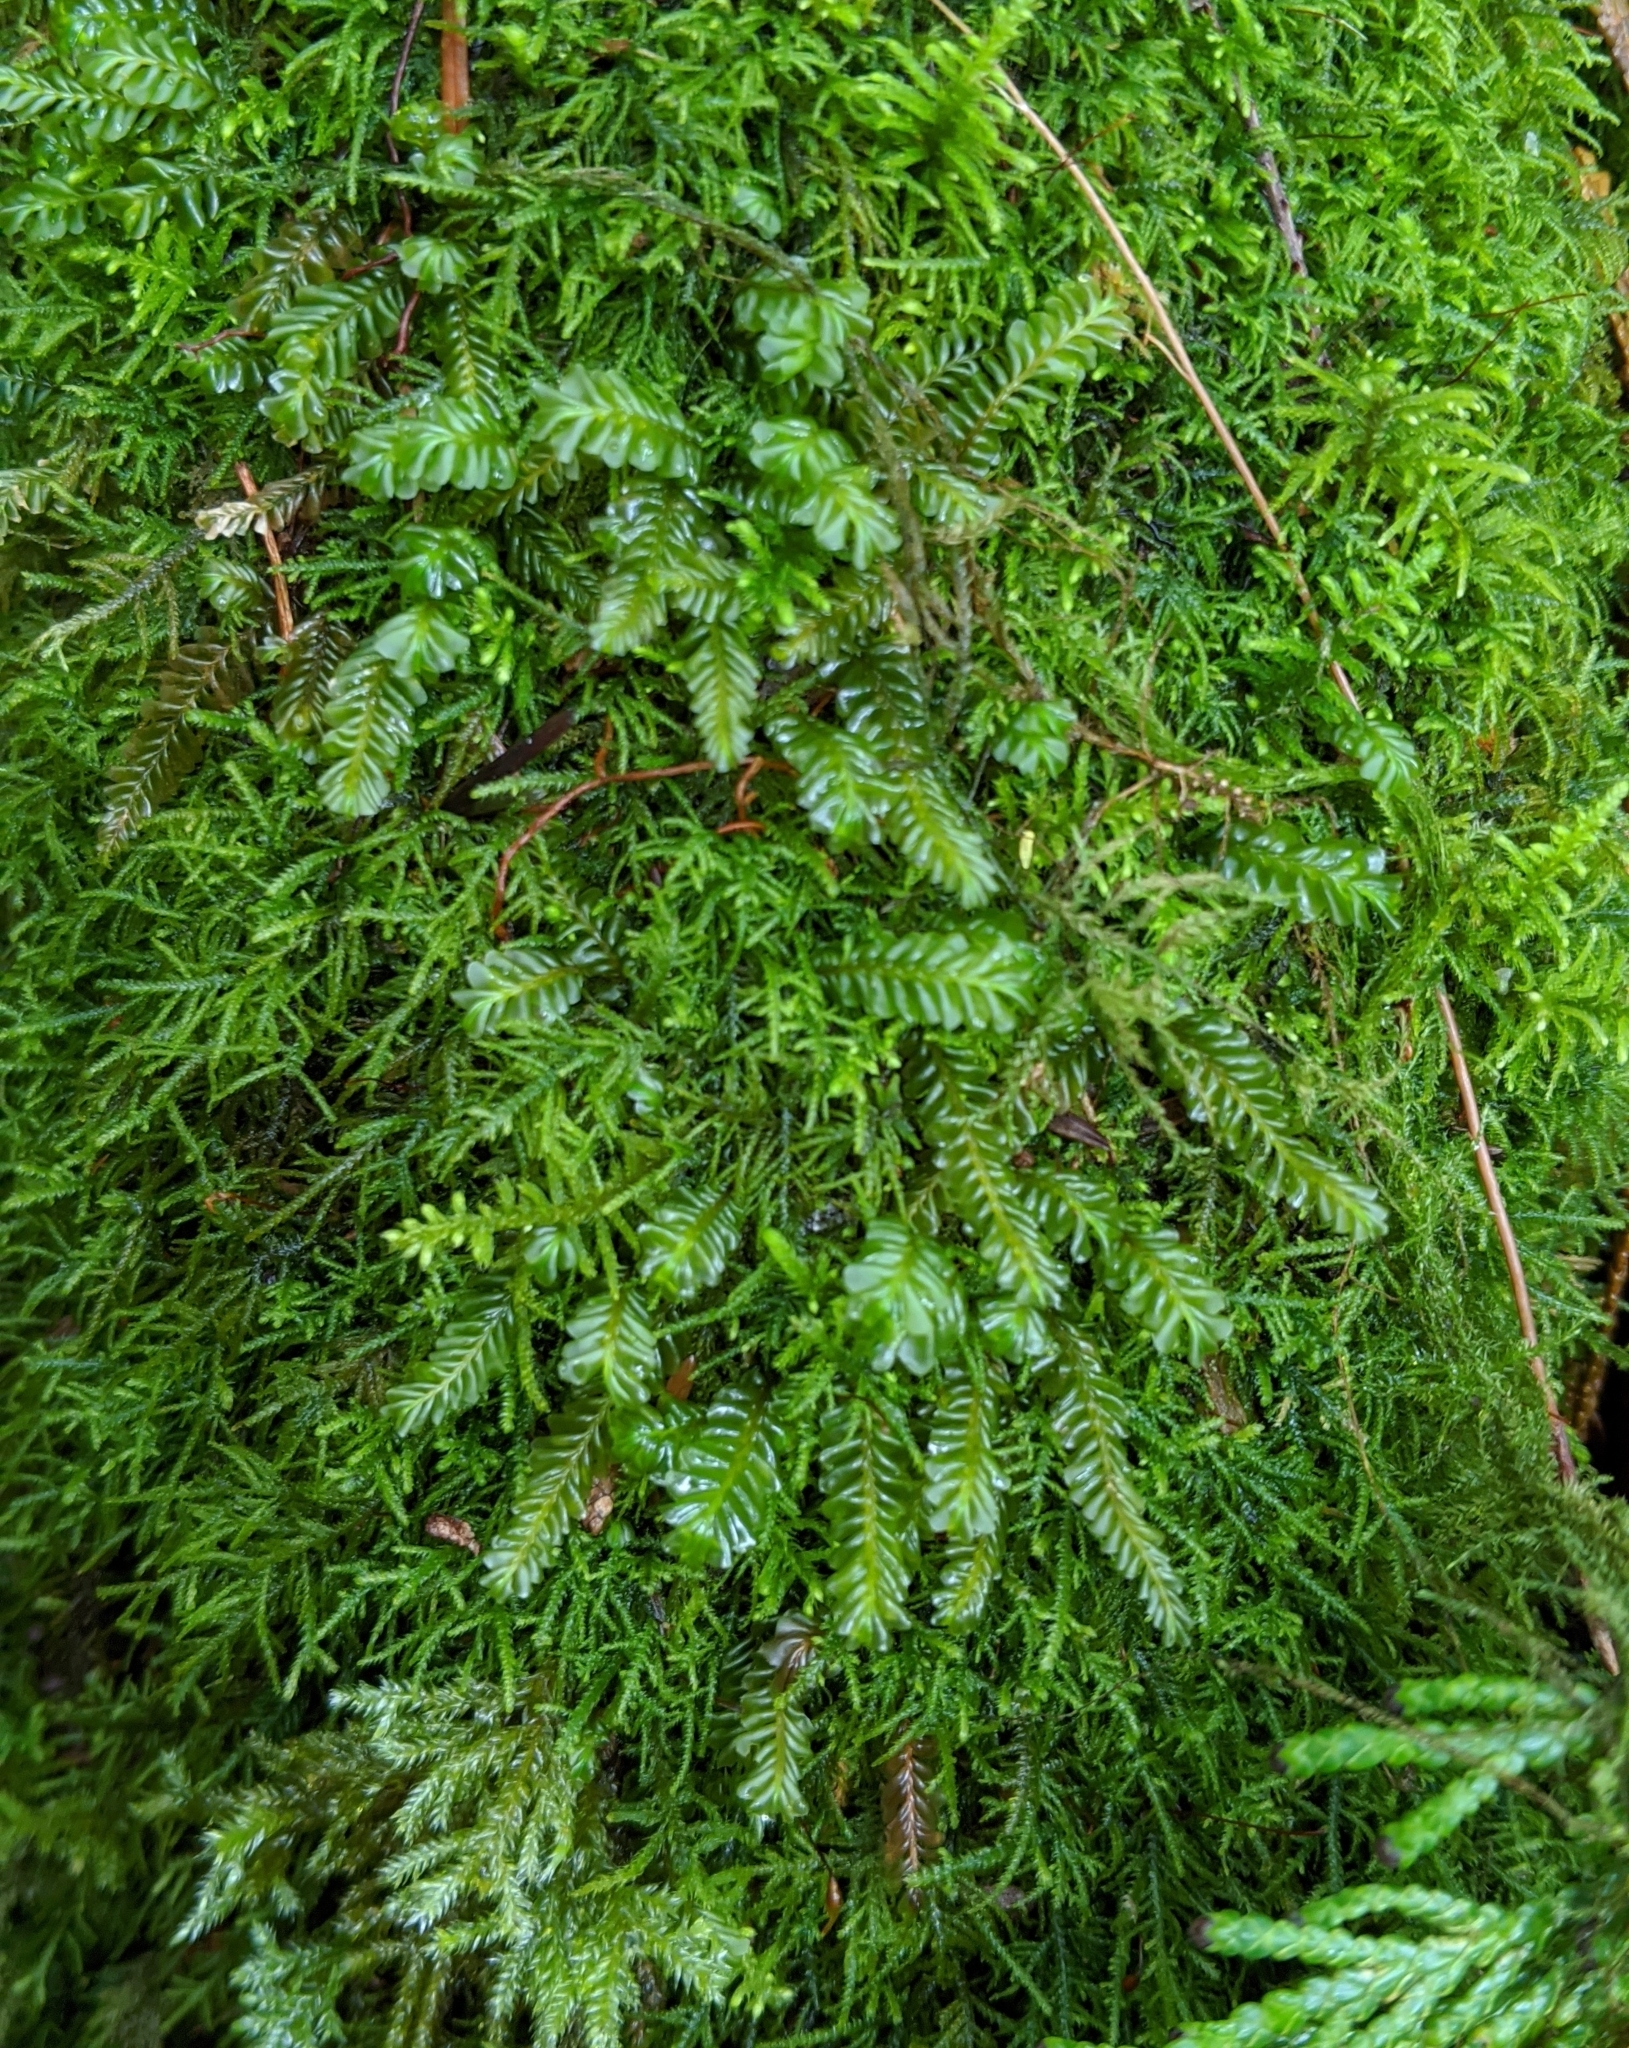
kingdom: Plantae
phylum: Marchantiophyta
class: Jungermanniopsida
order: Jungermanniales
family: Plagiochilaceae
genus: Plagiochila
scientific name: Plagiochila porelloides
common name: Lesser featherwort
